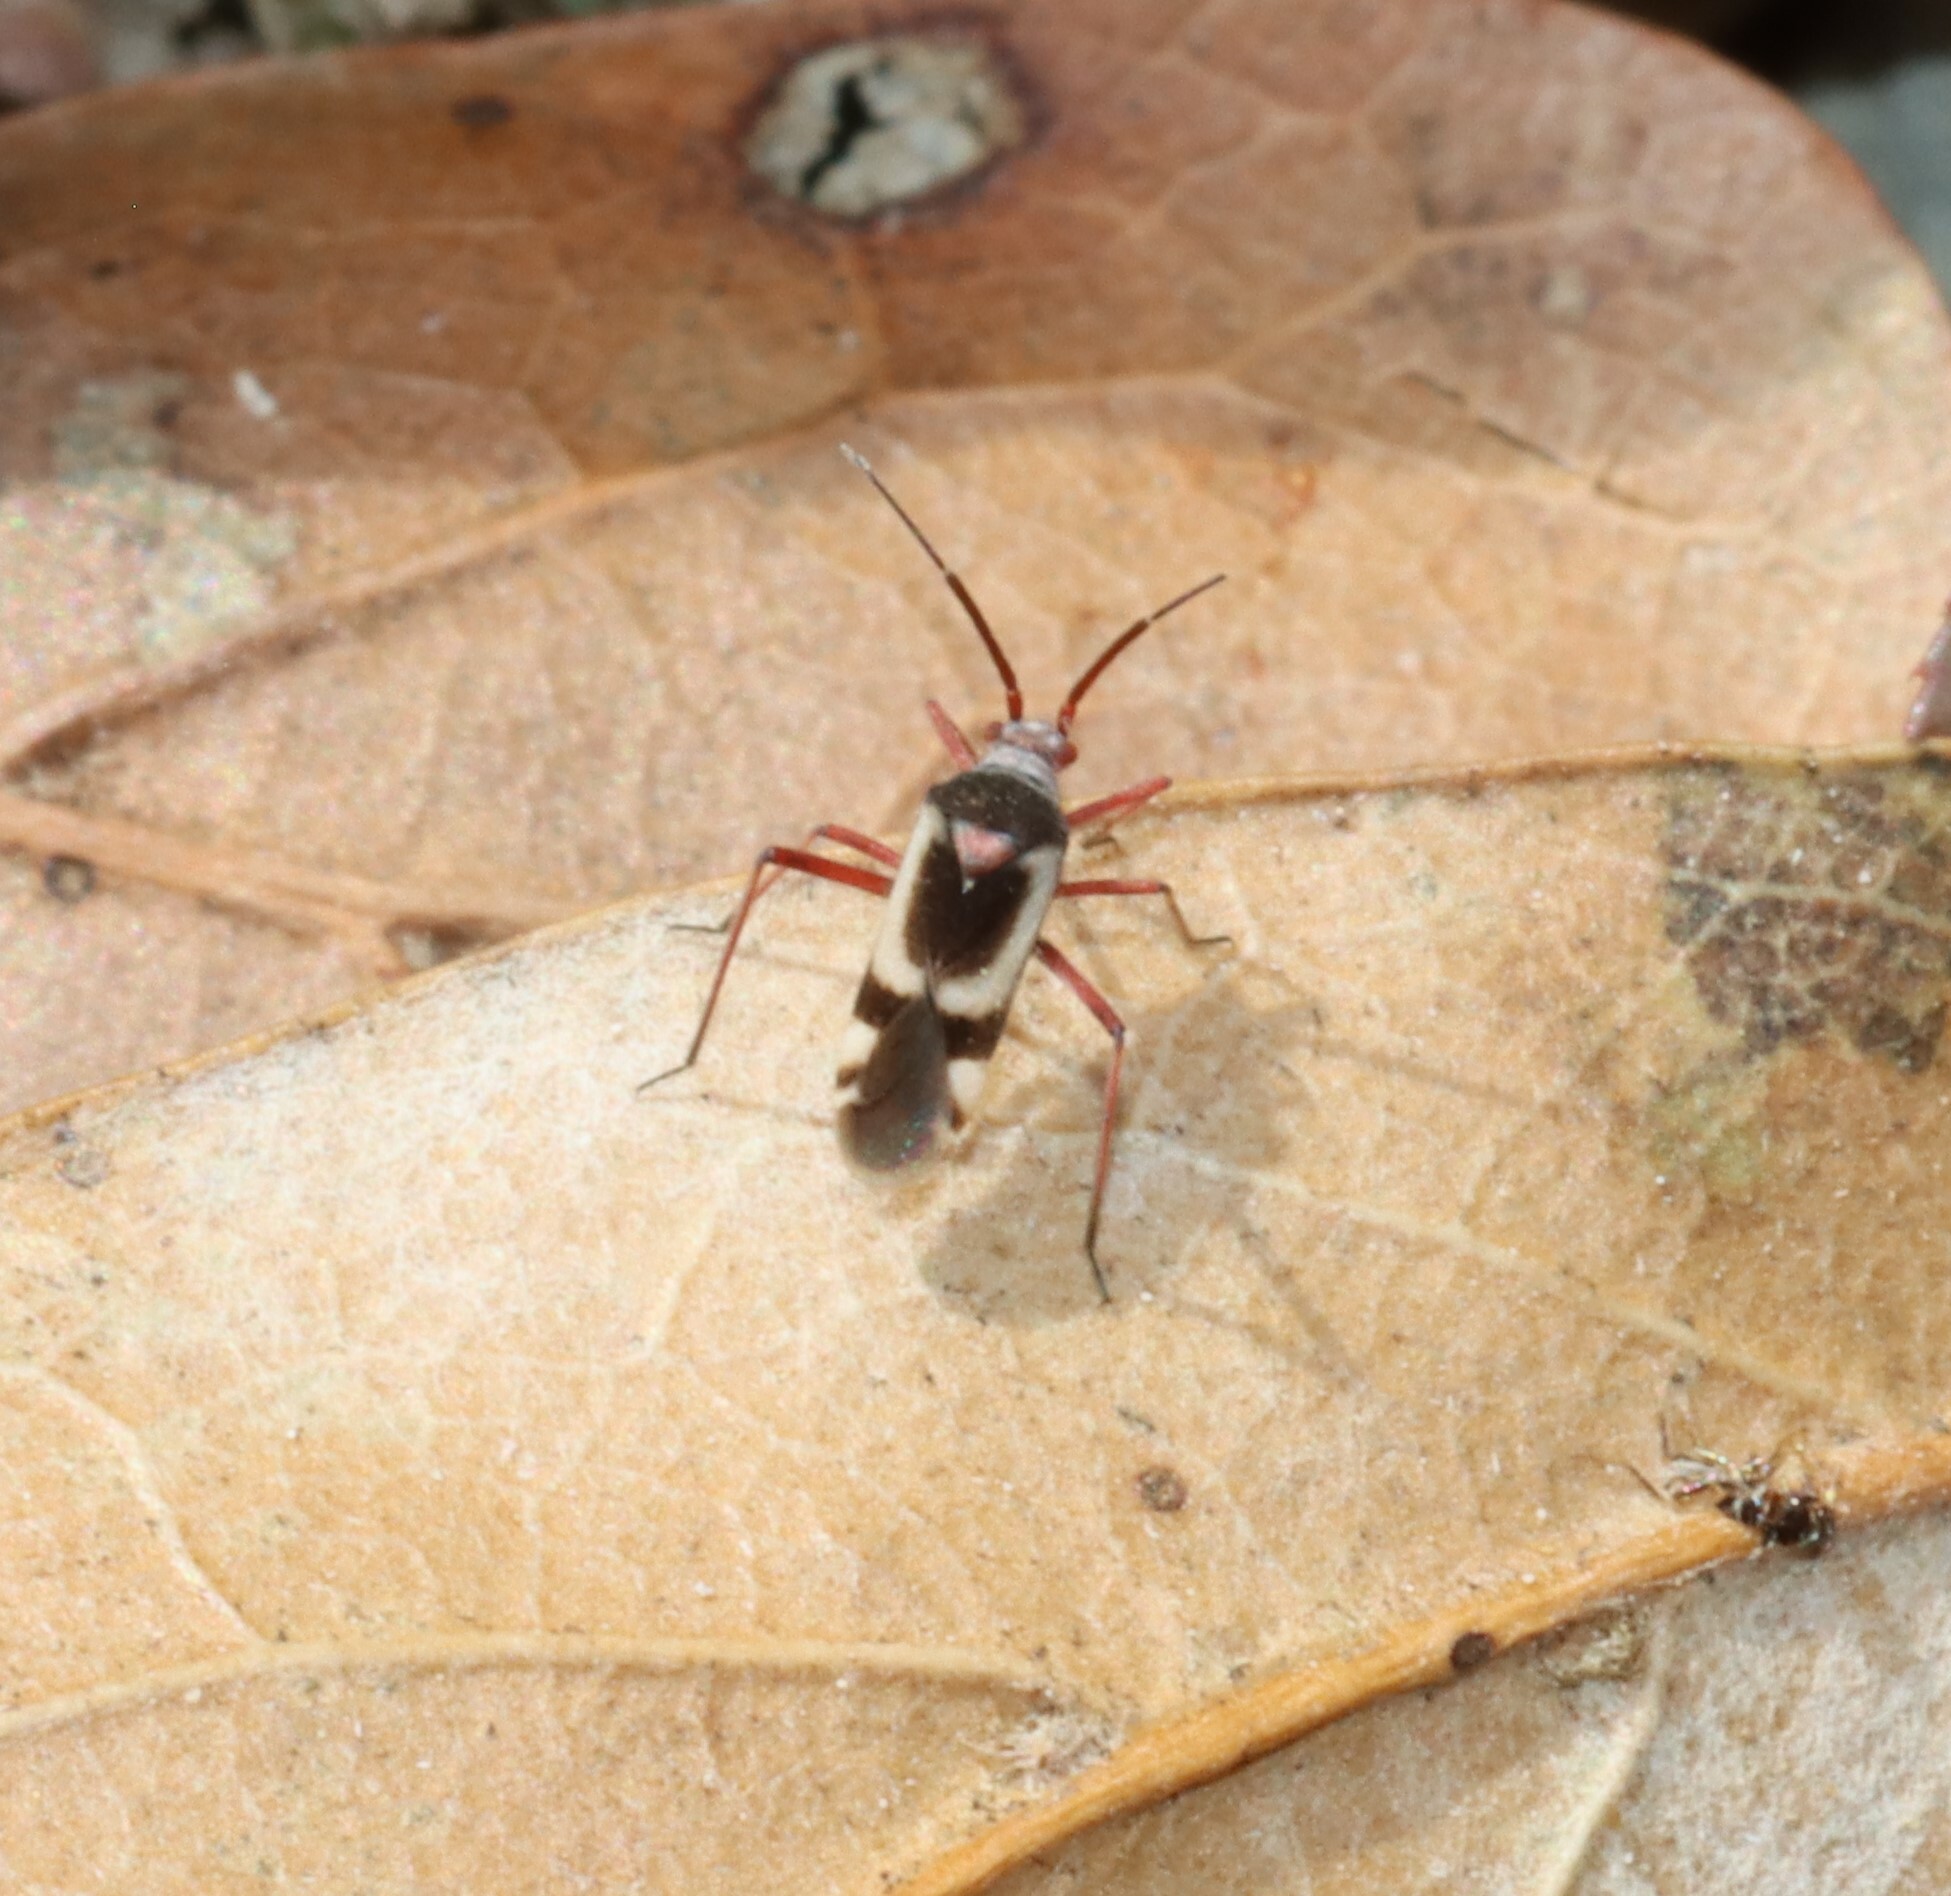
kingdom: Animalia
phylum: Arthropoda
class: Insecta
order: Hemiptera
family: Miridae
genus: Semium
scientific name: Semium hirtum
